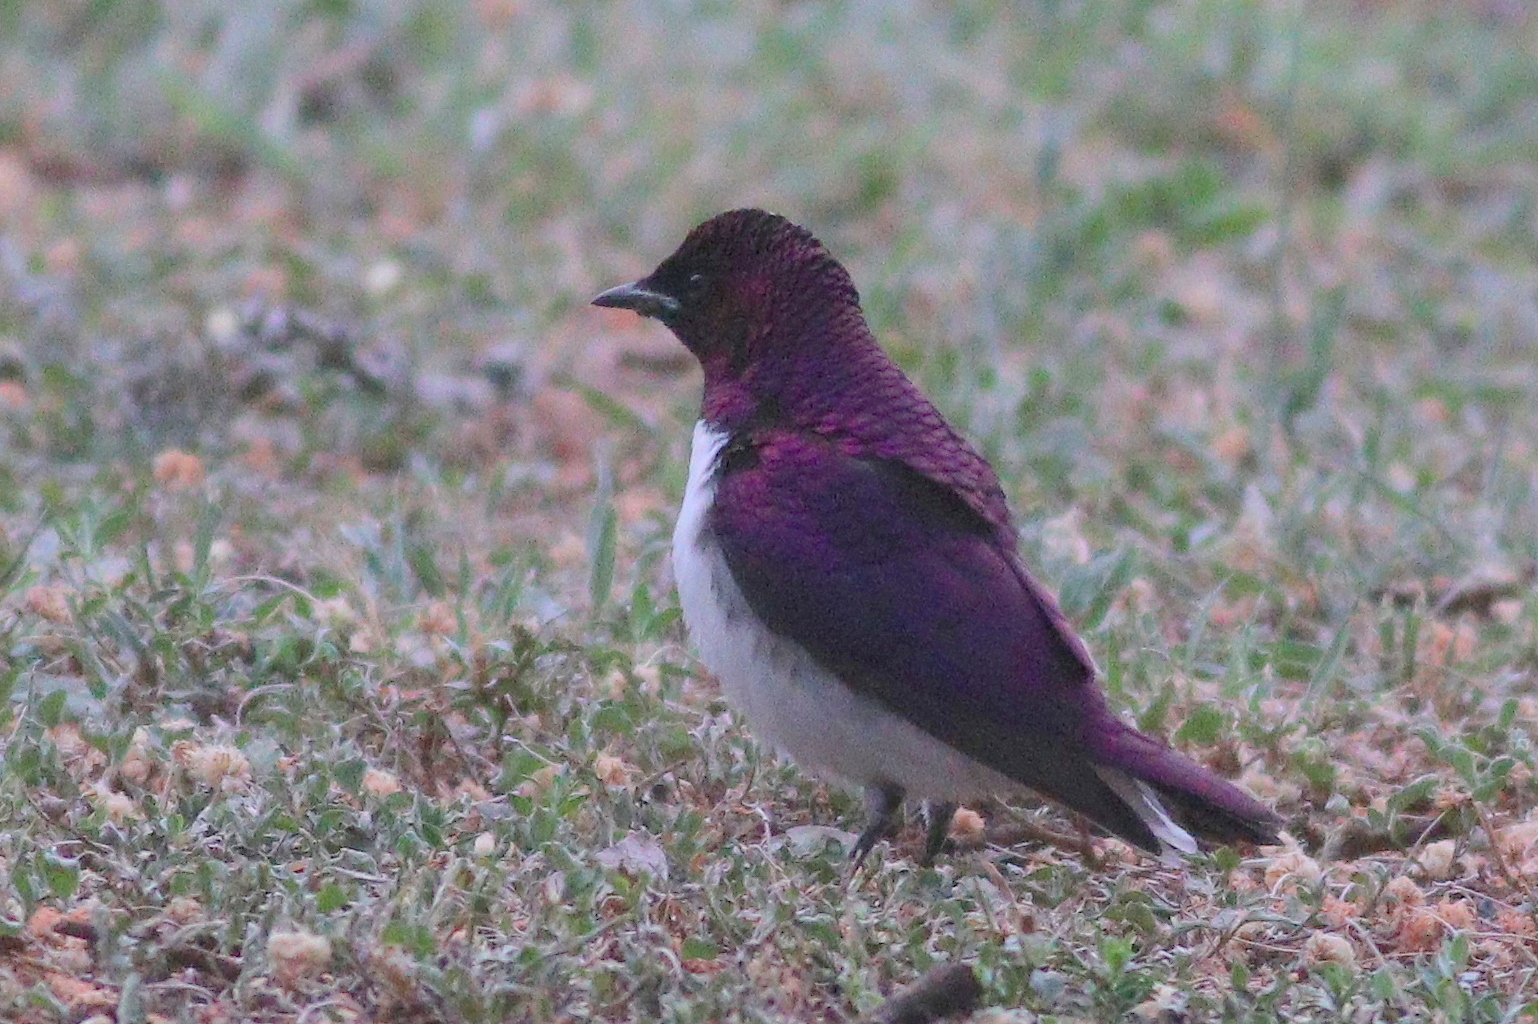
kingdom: Animalia
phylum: Chordata
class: Aves
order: Passeriformes
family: Sturnidae
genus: Cinnyricinclus
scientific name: Cinnyricinclus leucogaster
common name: Violet-backed starling
